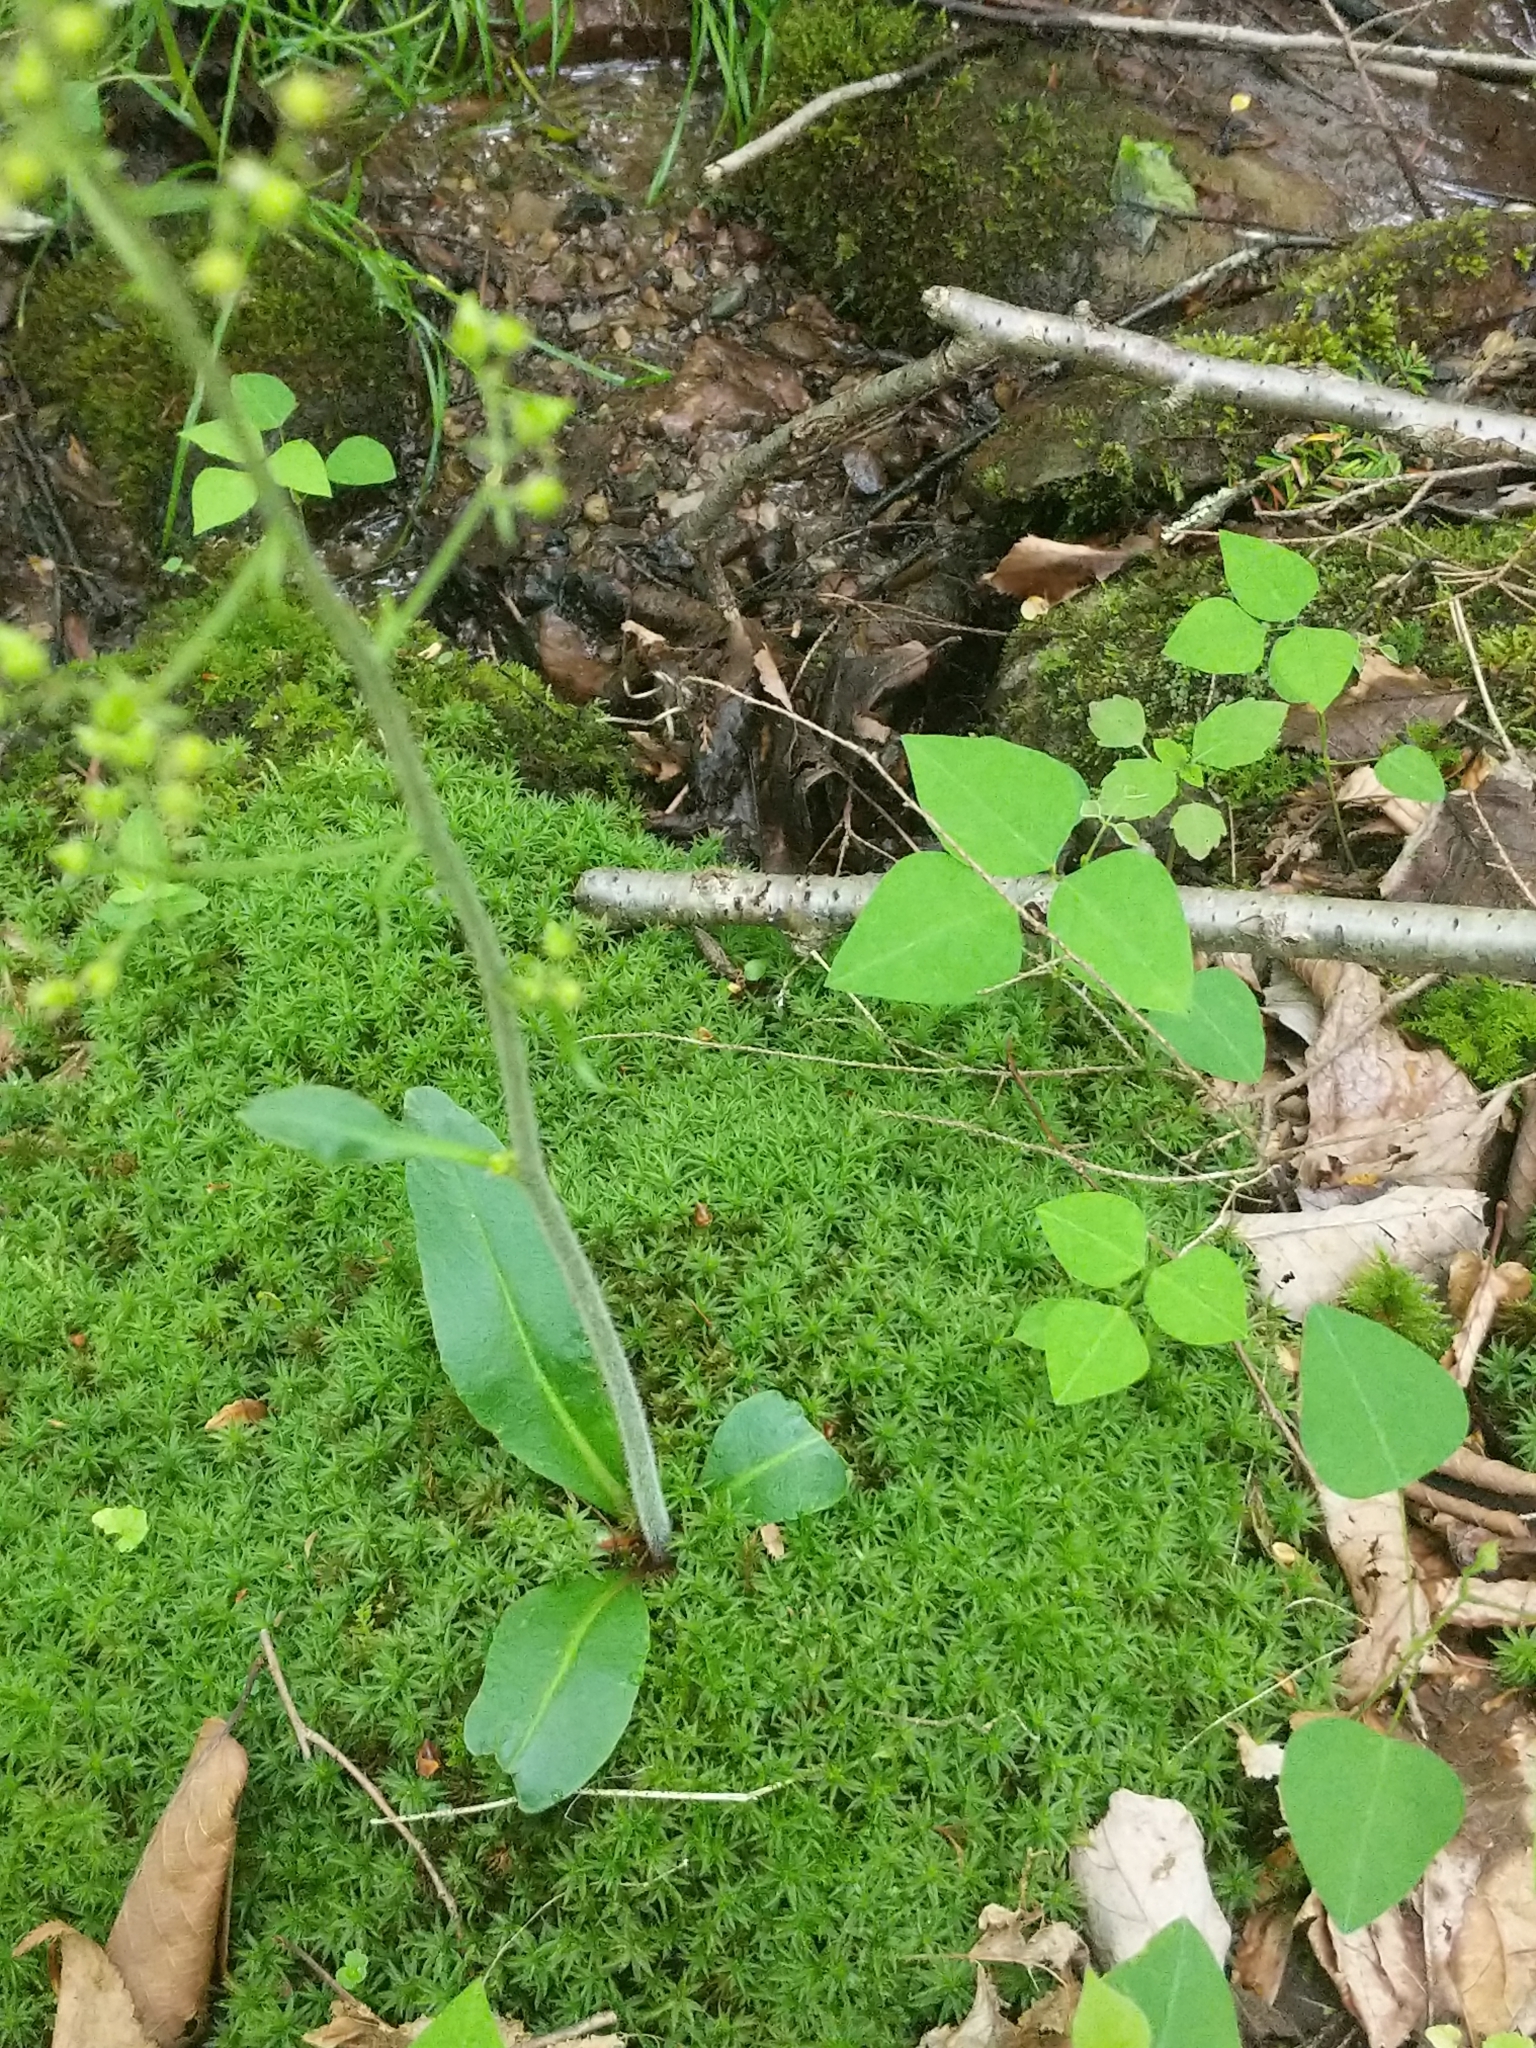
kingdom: Plantae
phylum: Tracheophyta
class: Magnoliopsida
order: Saxifragales
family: Saxifragaceae
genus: Micranthes
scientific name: Micranthes pensylvanica
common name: Marsh saxifrage
